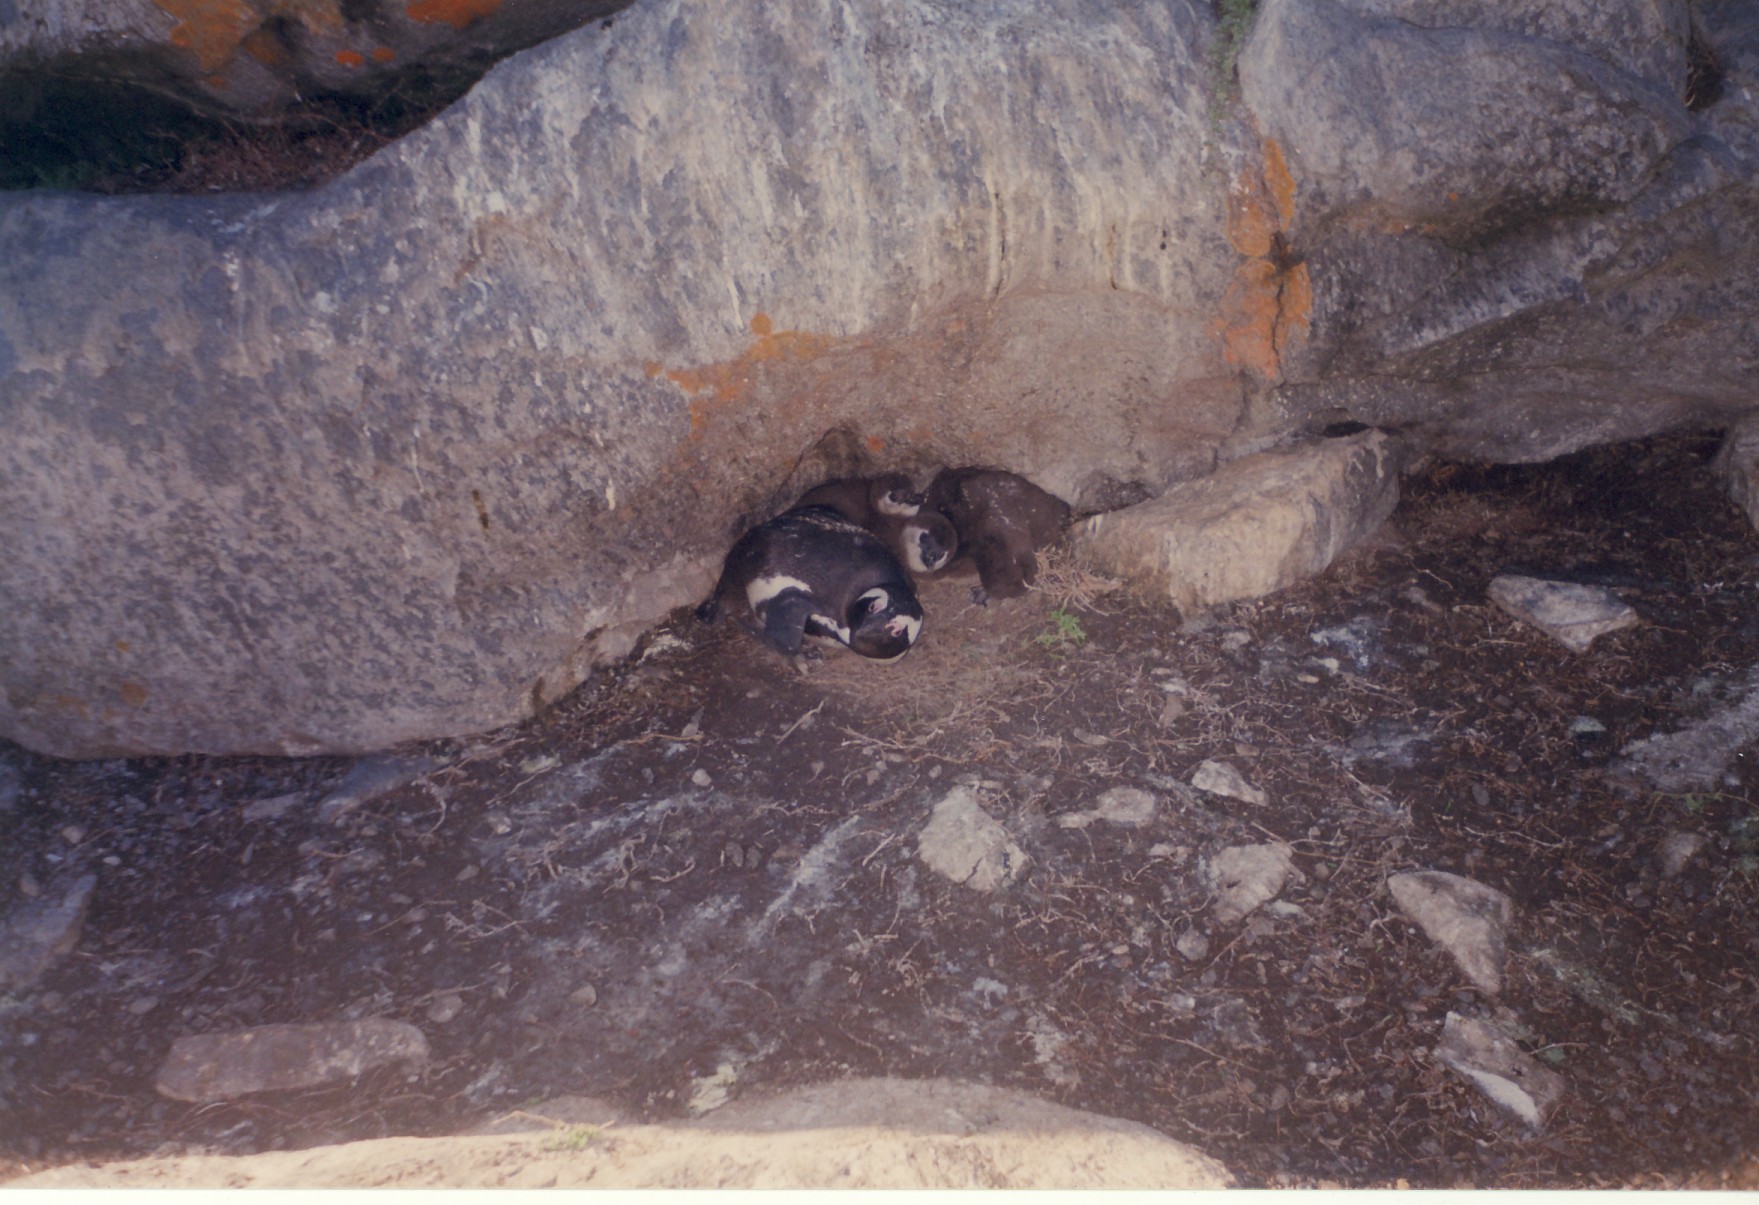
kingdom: Animalia
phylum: Chordata
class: Aves
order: Sphenisciformes
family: Spheniscidae
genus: Spheniscus
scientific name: Spheniscus demersus
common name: African penguin
